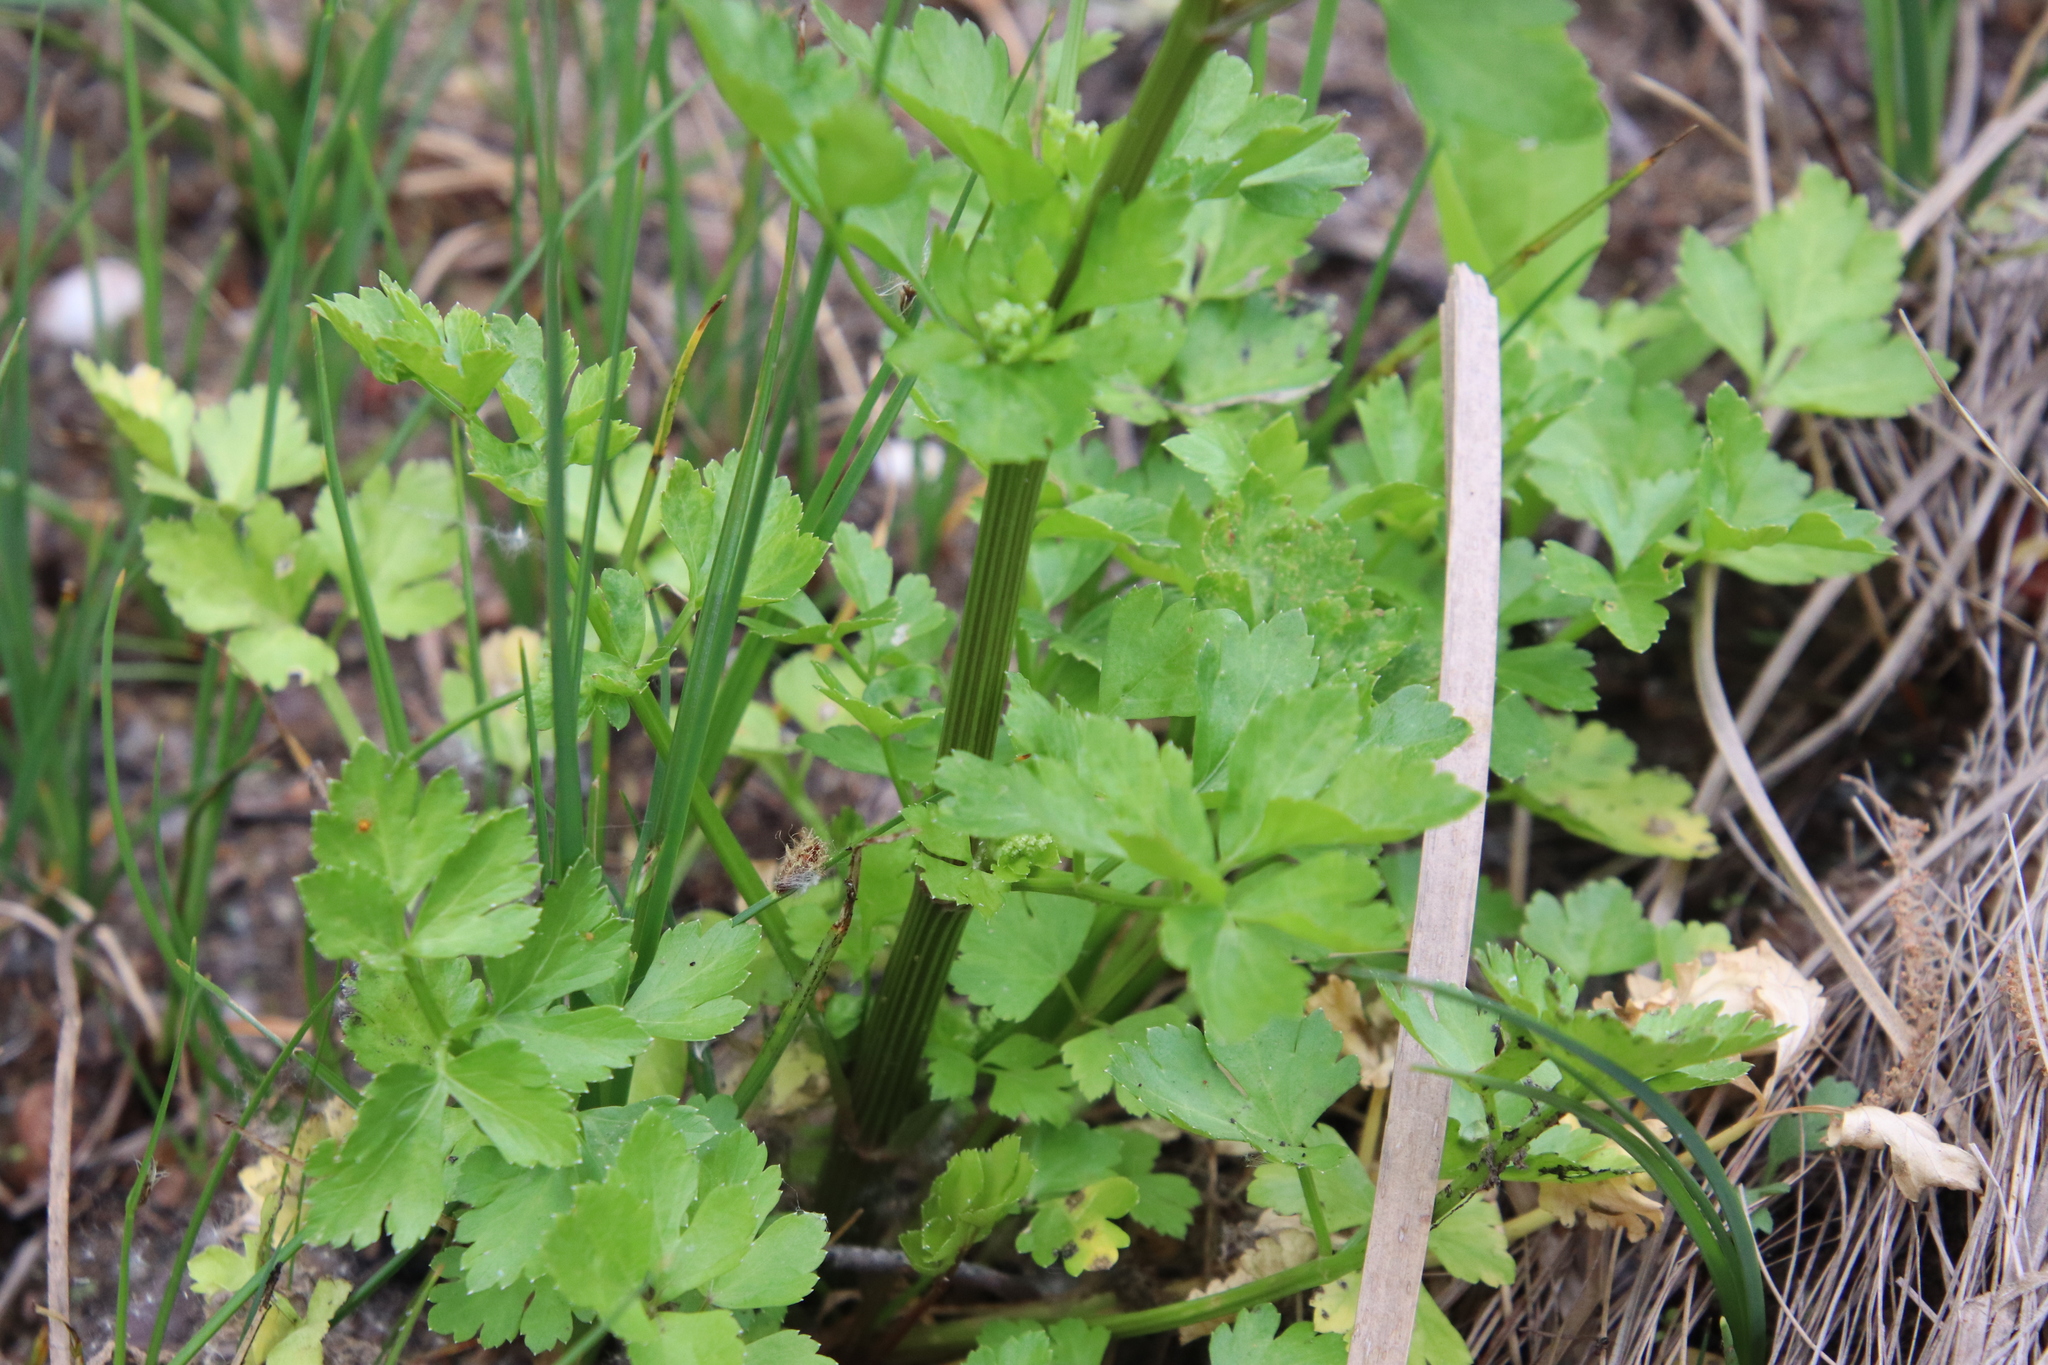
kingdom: Plantae
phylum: Tracheophyta
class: Magnoliopsida
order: Apiales
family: Apiaceae
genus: Apium
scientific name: Apium graveolens
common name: Wild celery
